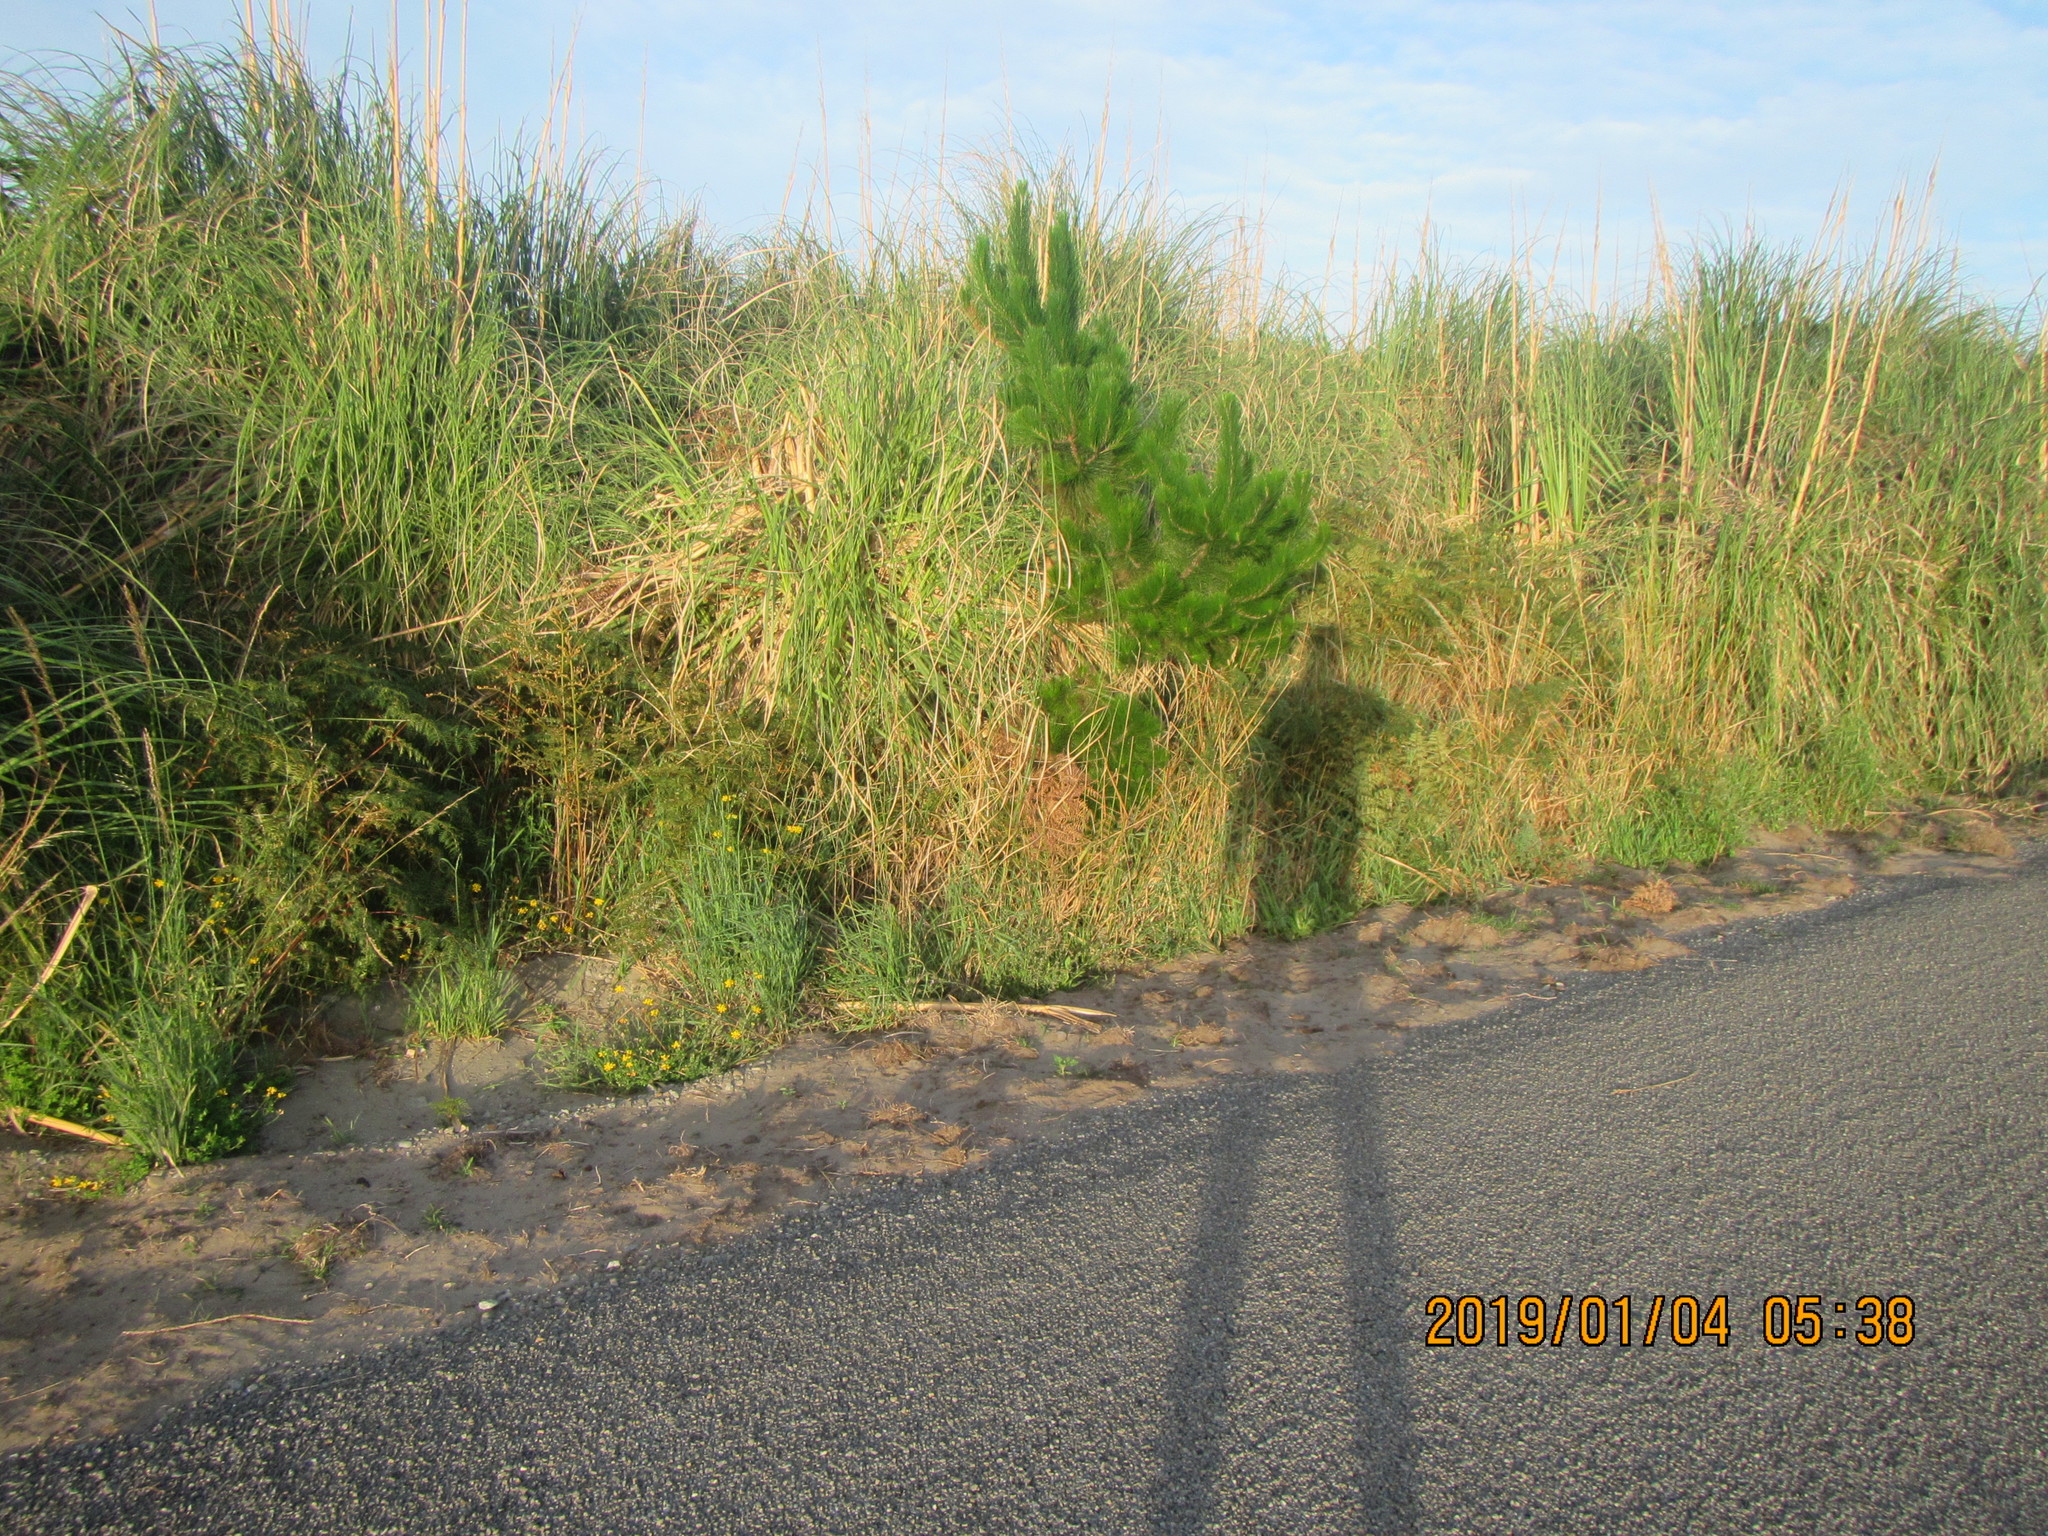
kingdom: Plantae
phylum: Tracheophyta
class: Polypodiopsida
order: Polypodiales
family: Dennstaedtiaceae
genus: Pteridium
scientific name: Pteridium esculentum
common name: Bracken fern
